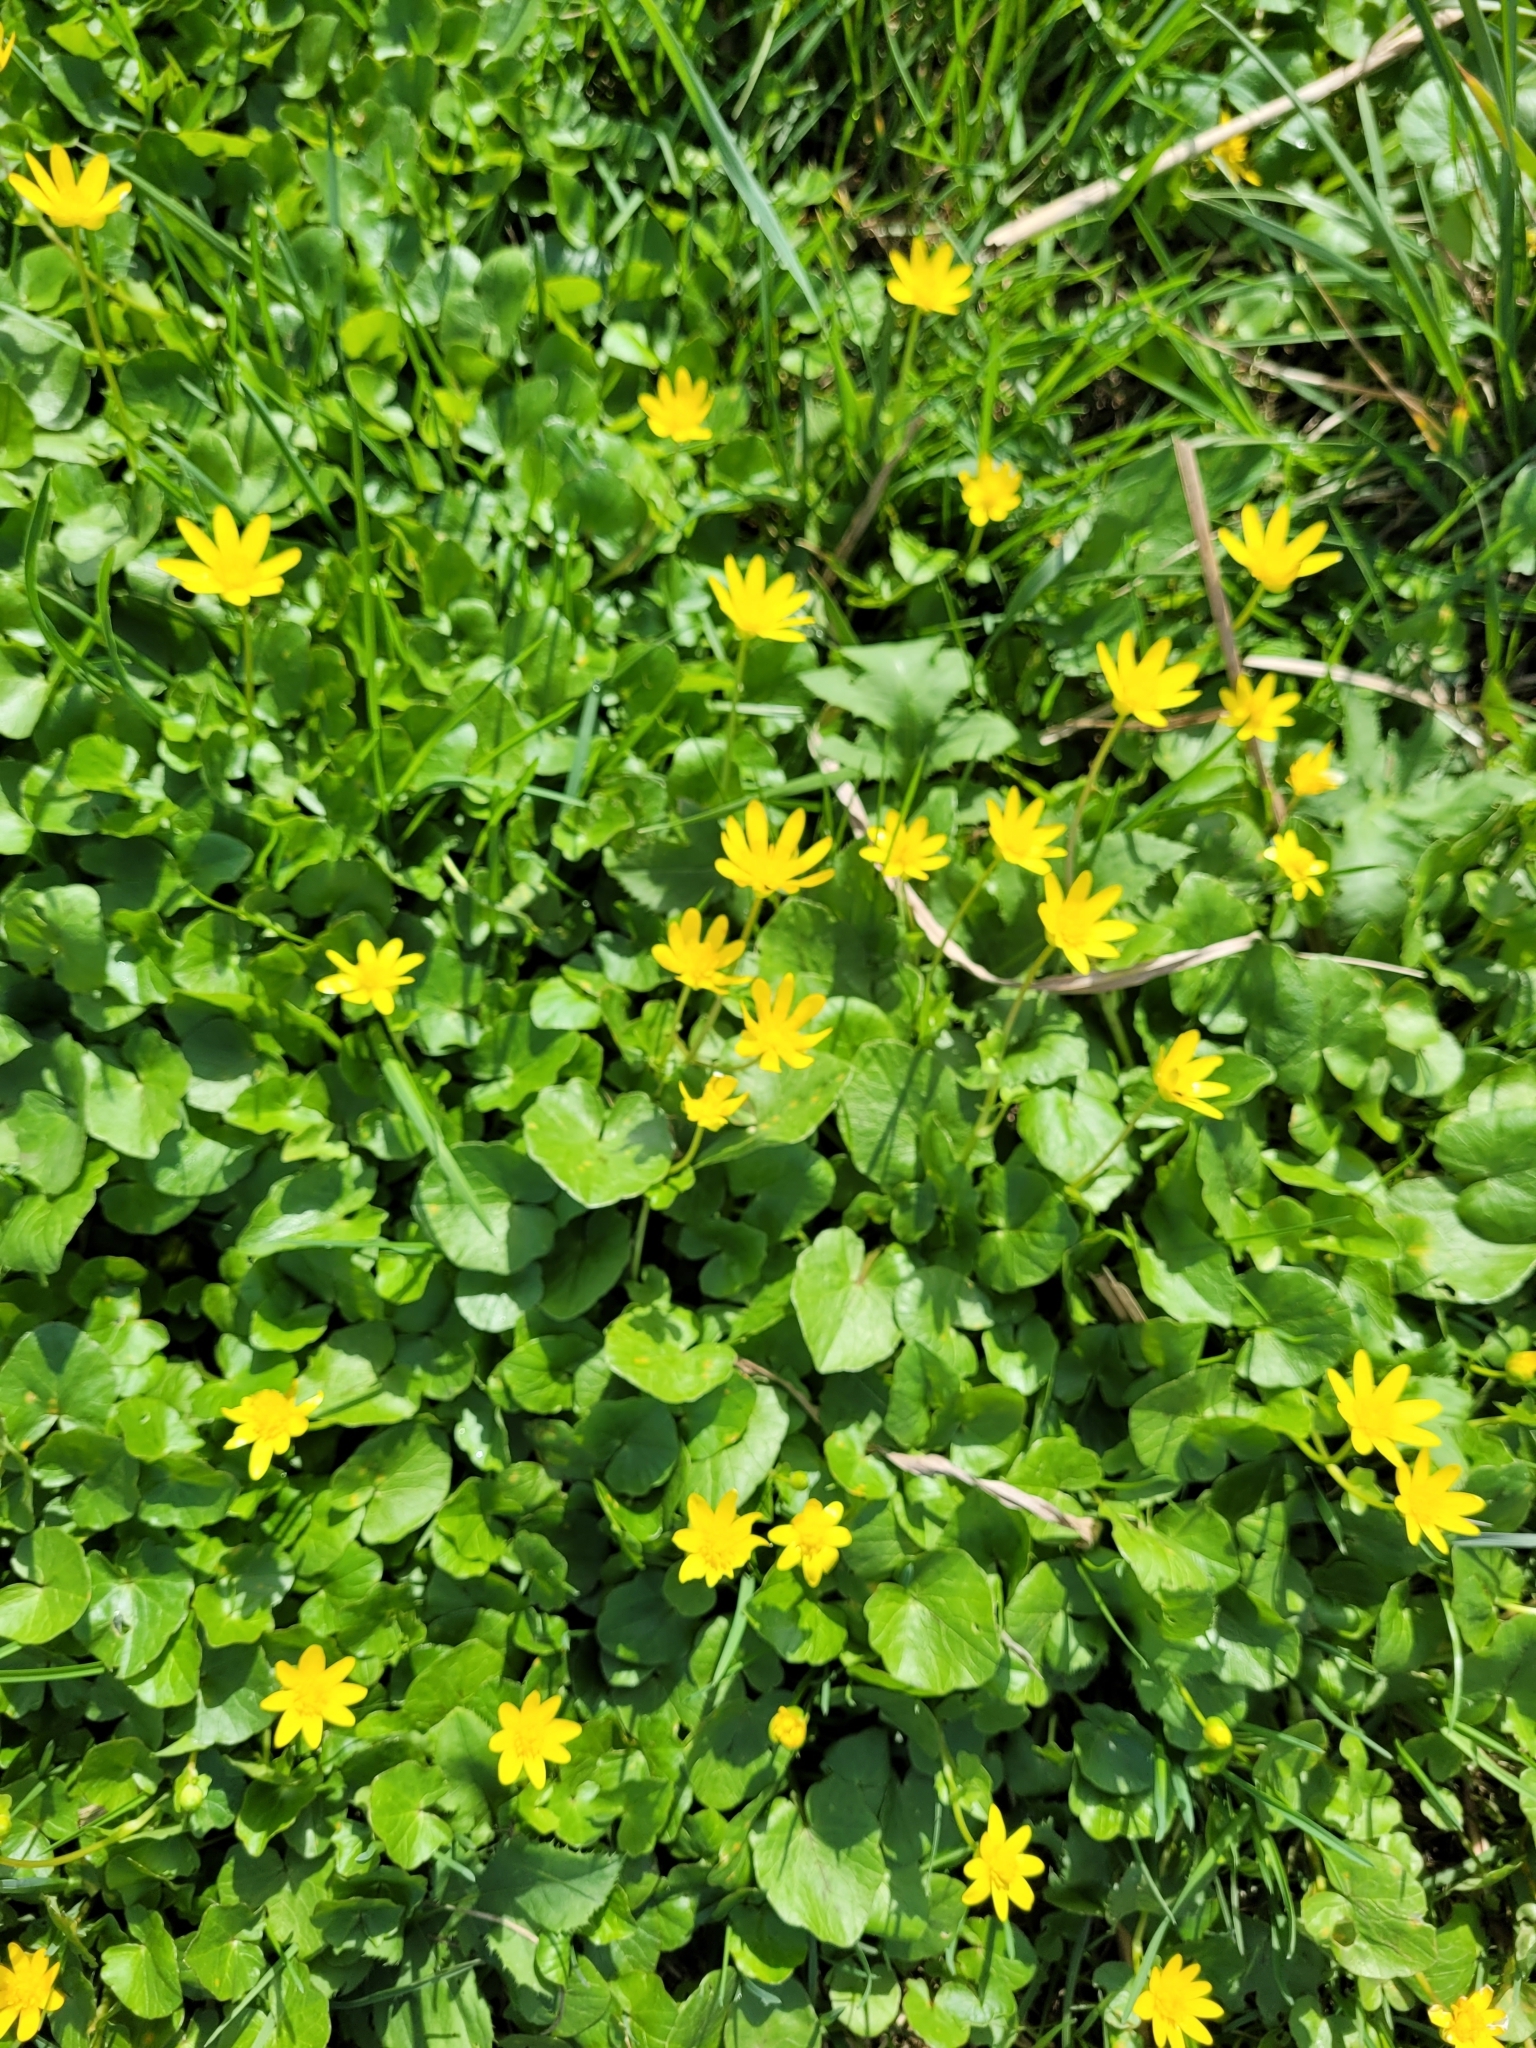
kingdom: Plantae
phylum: Tracheophyta
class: Magnoliopsida
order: Ranunculales
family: Ranunculaceae
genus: Ficaria
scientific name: Ficaria verna
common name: Lesser celandine
